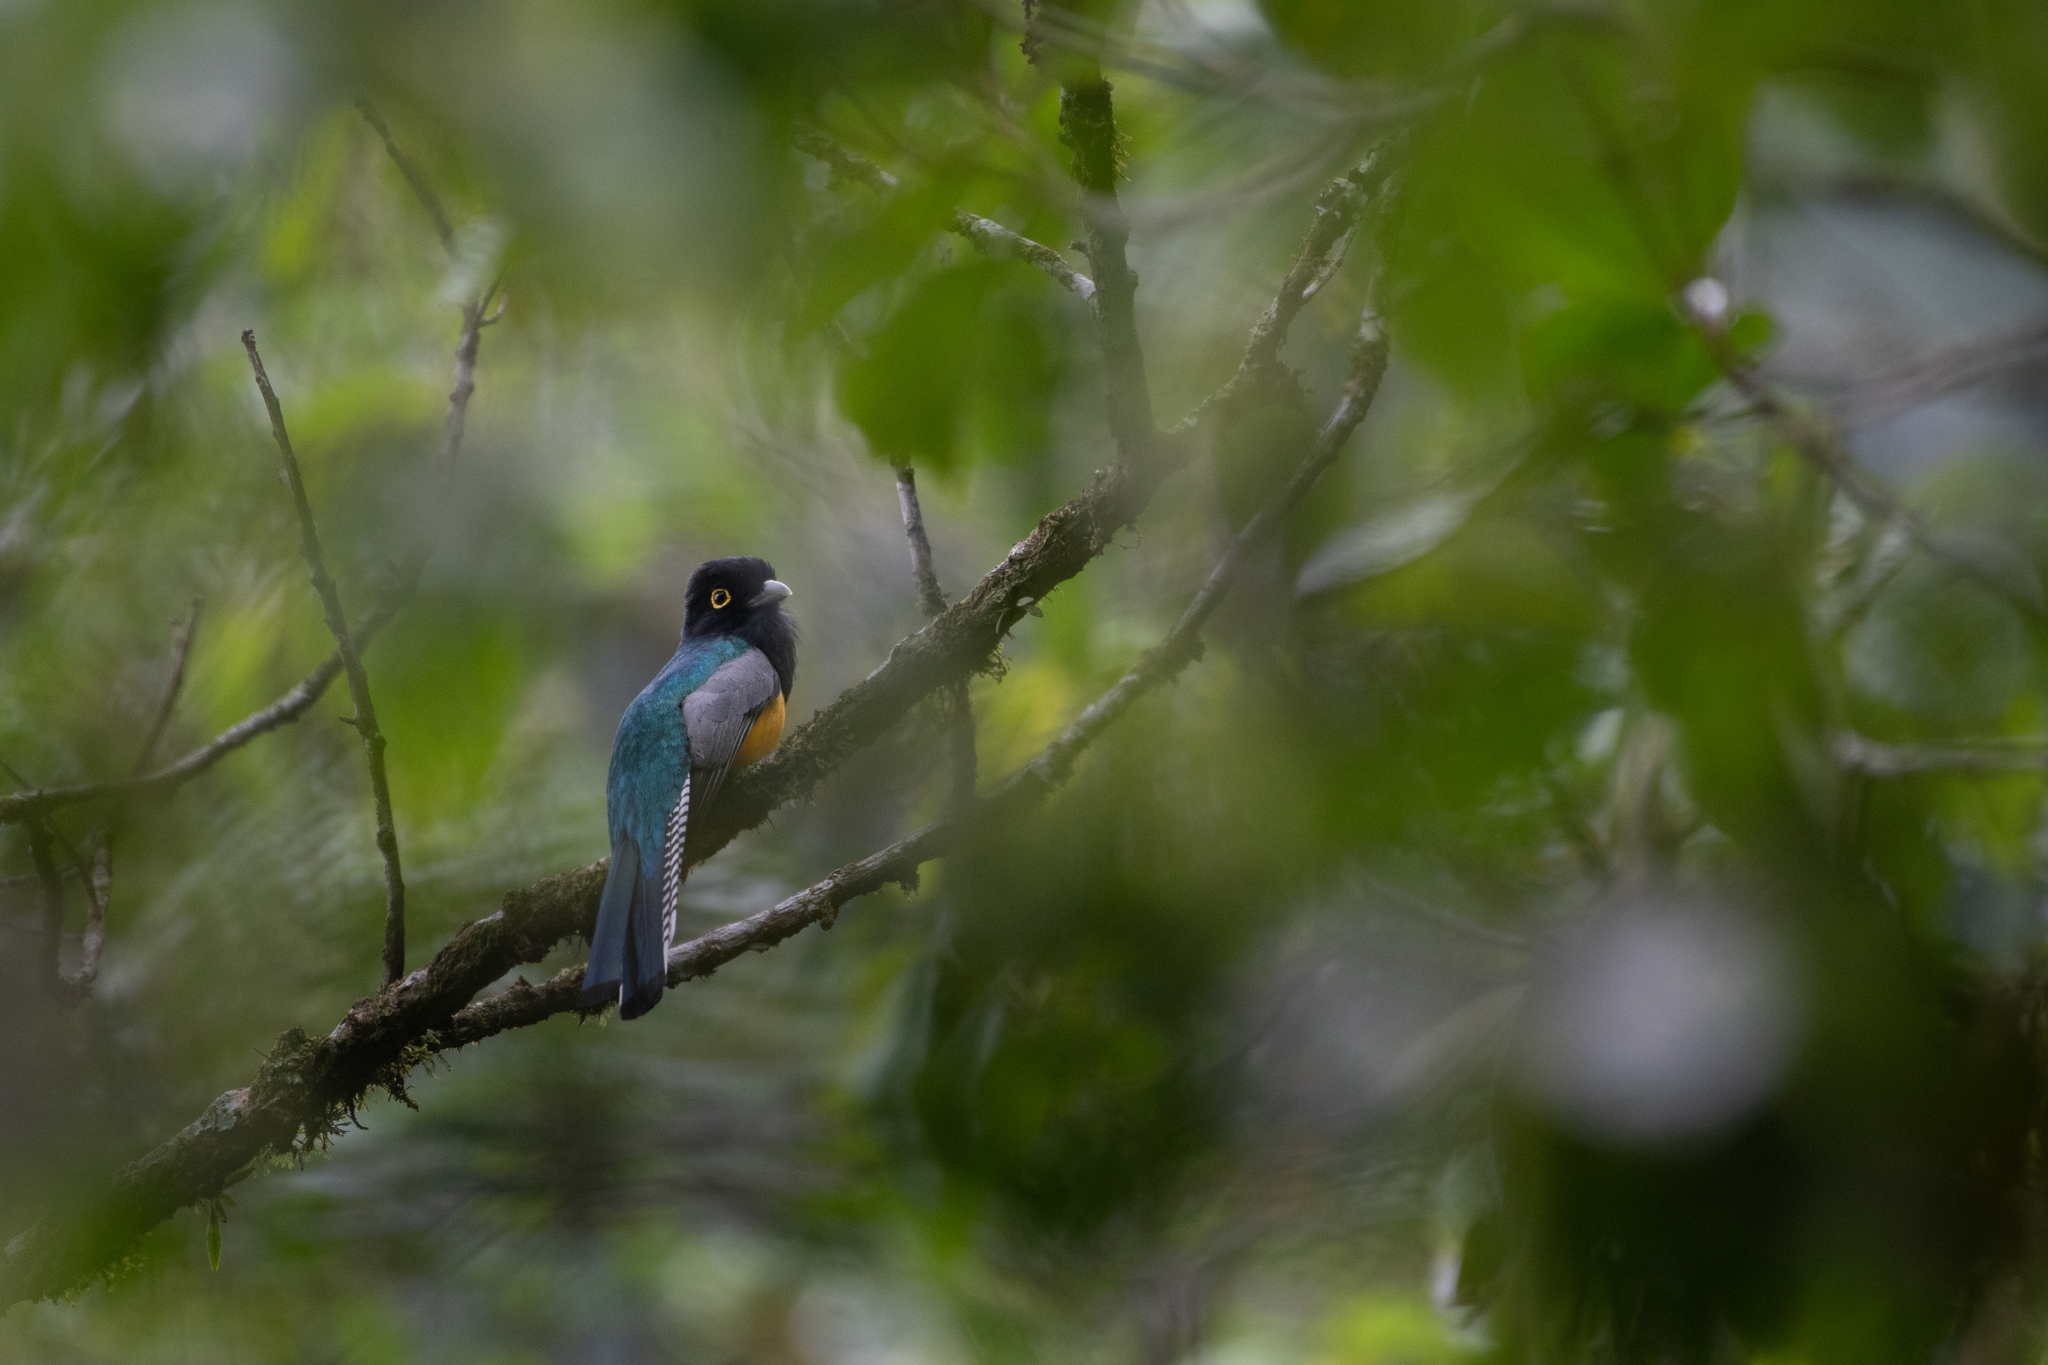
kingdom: Animalia
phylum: Chordata
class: Aves
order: Trogoniformes
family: Trogonidae
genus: Trogon
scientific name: Trogon caligatus
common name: Gartered trogon
